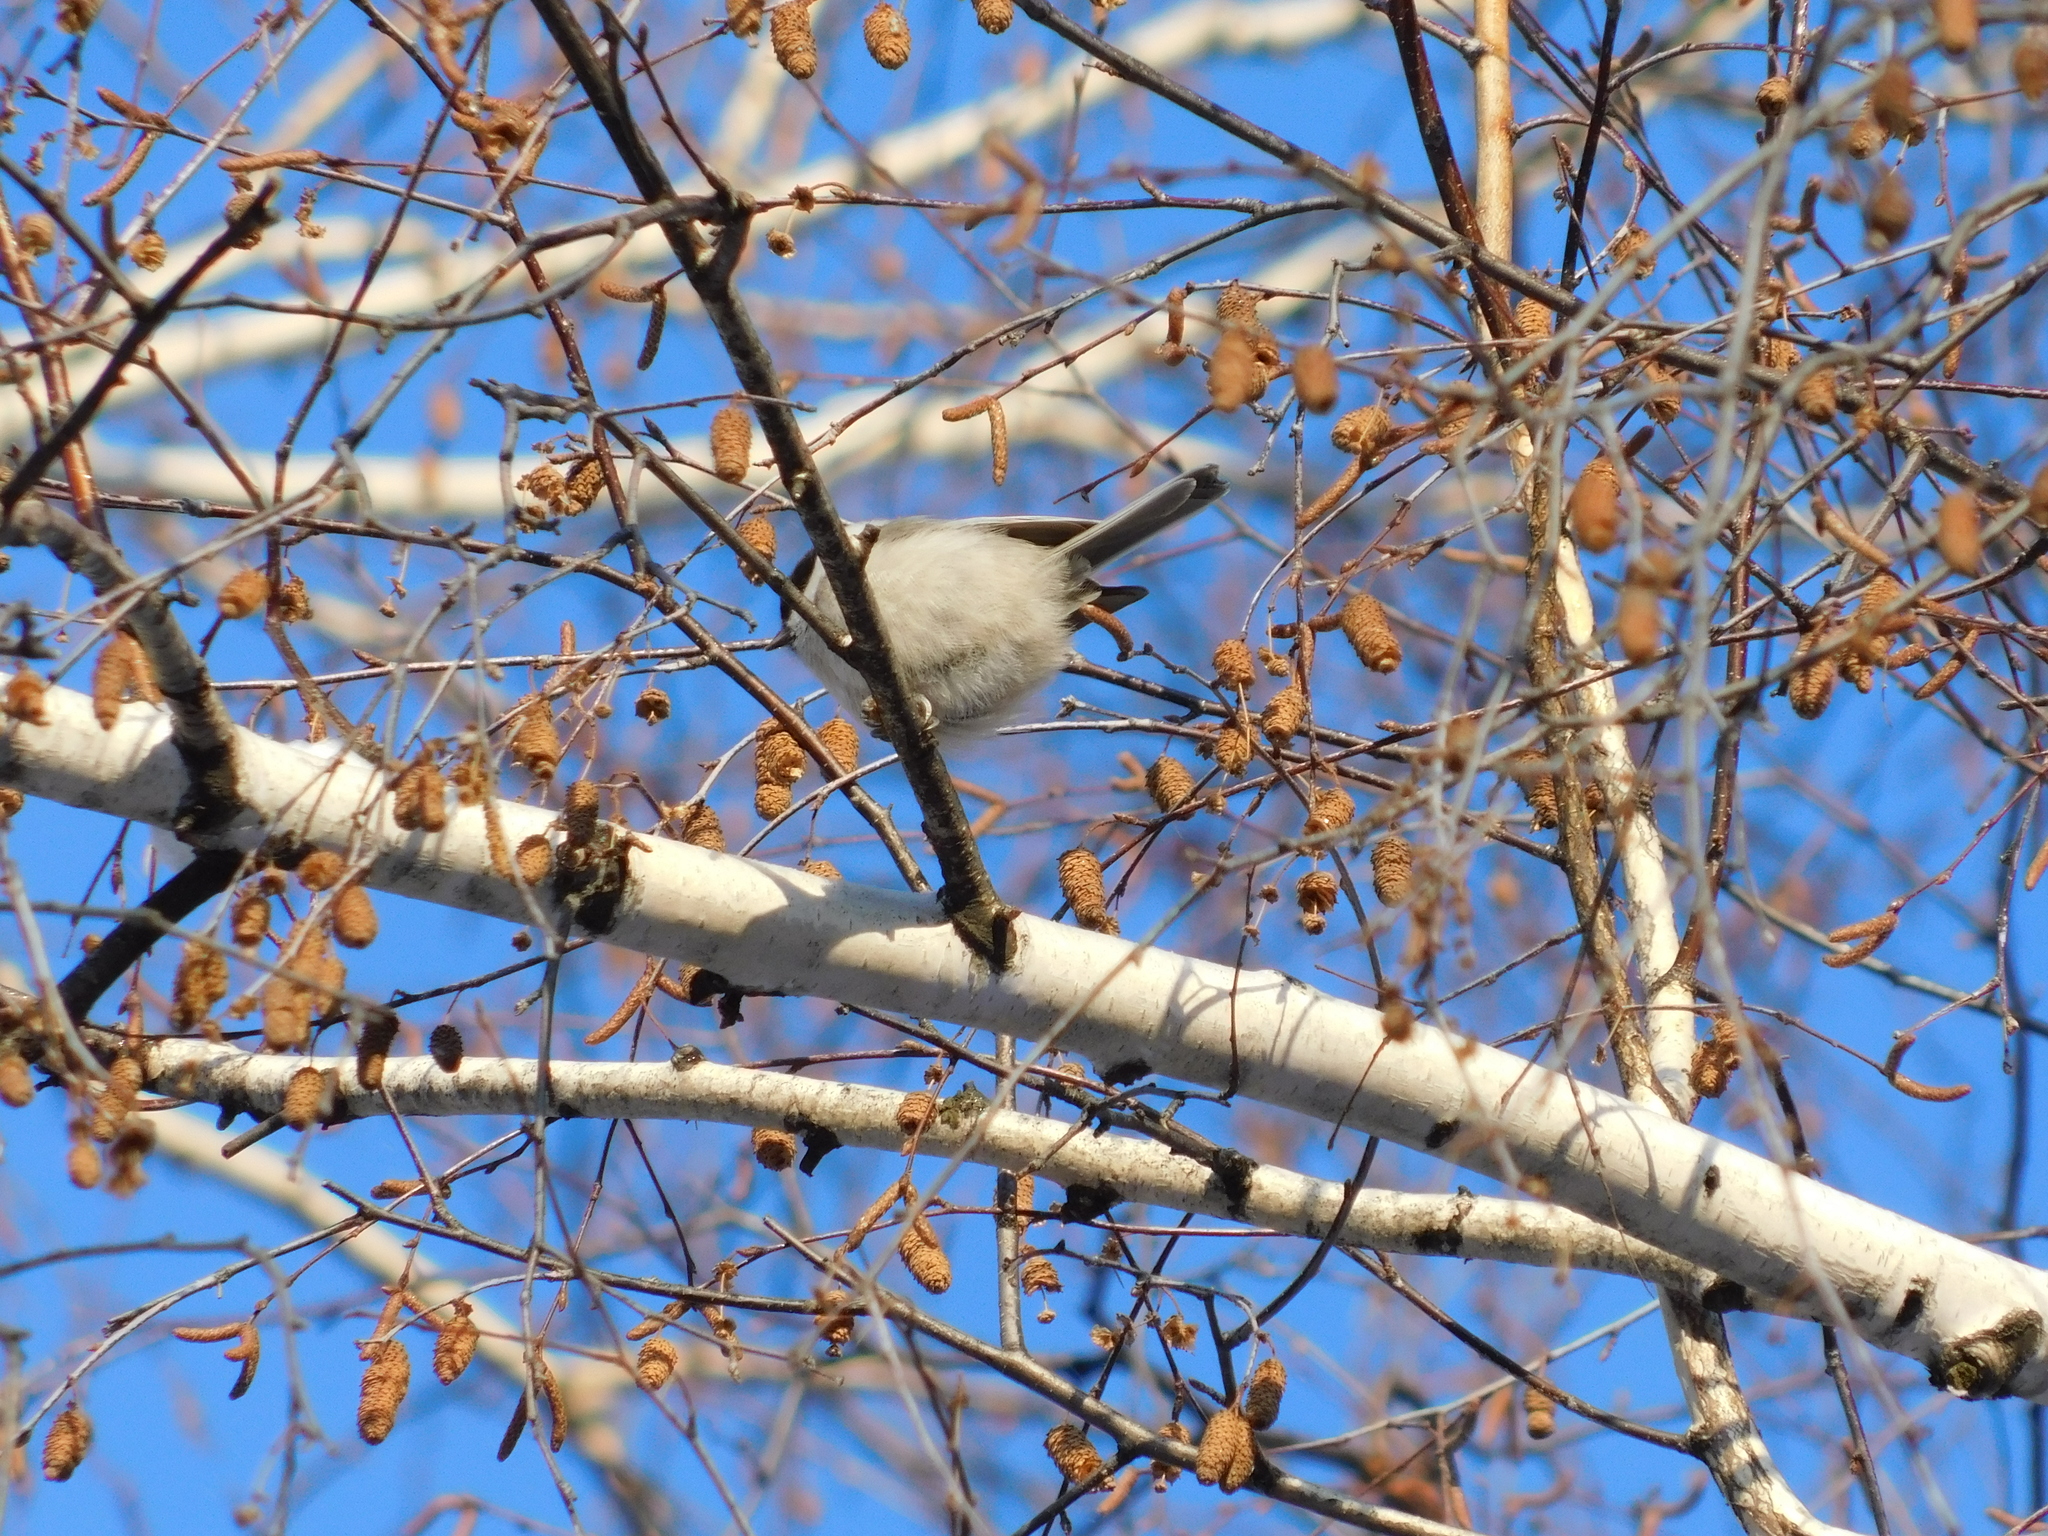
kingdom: Animalia
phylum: Chordata
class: Aves
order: Passeriformes
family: Paridae
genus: Poecile
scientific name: Poecile montanus
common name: Willow tit
